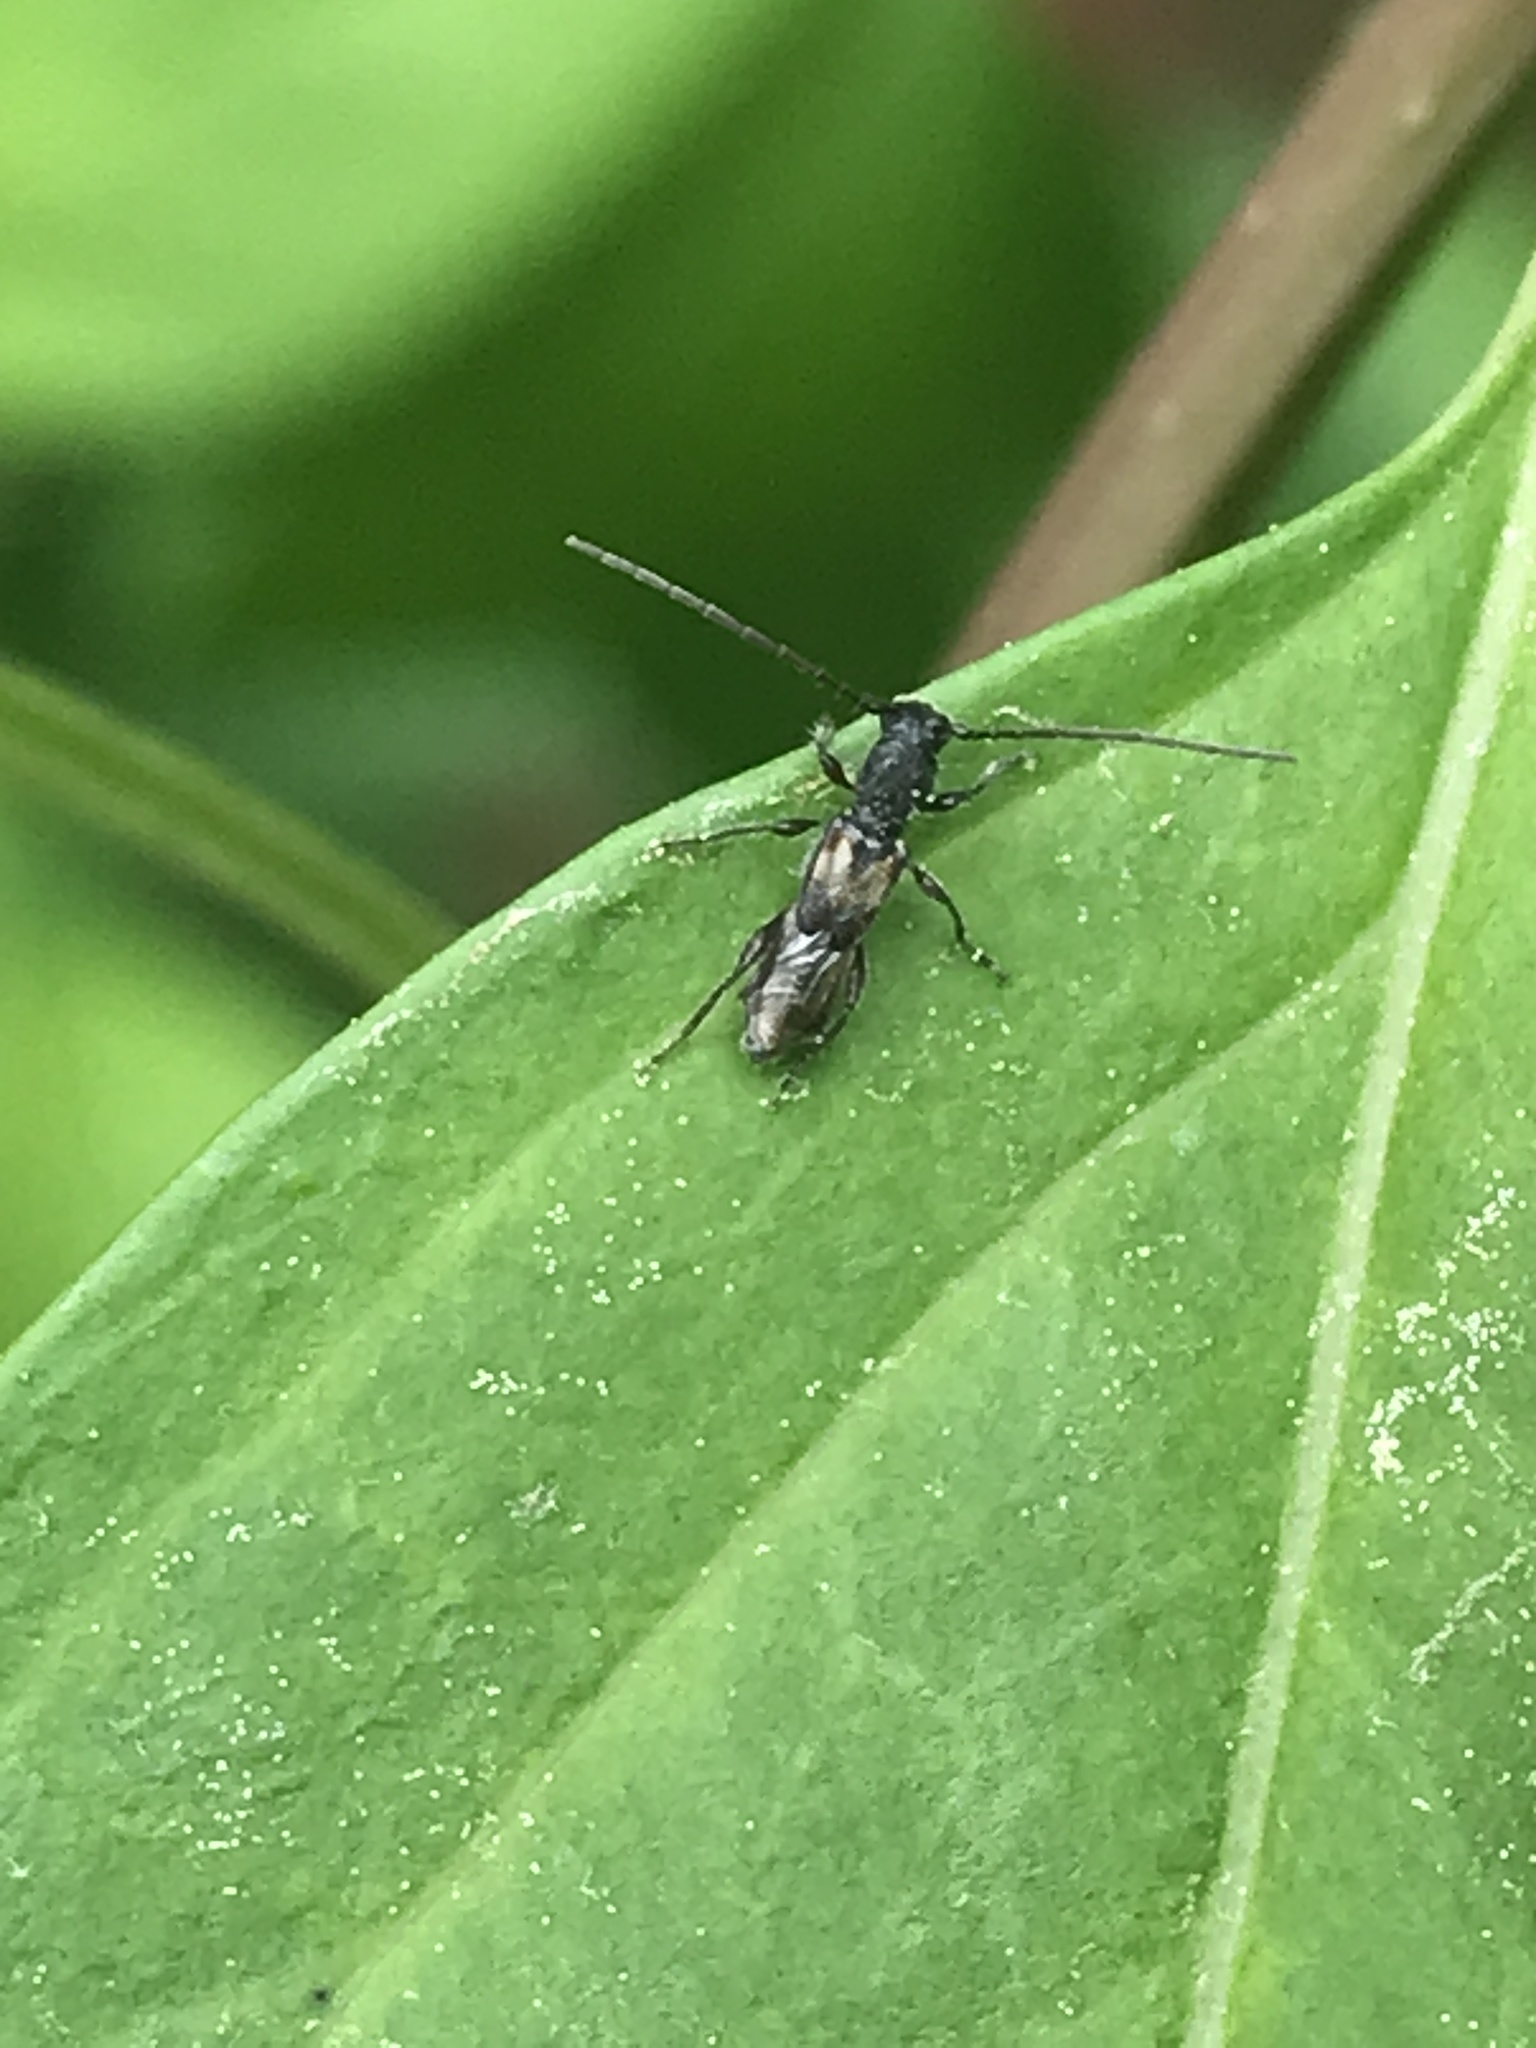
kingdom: Animalia
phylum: Arthropoda
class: Insecta
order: Coleoptera
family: Cerambycidae
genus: Molorchus
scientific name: Molorchus bimaculatus
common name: Bimaculate longhorn beetle
